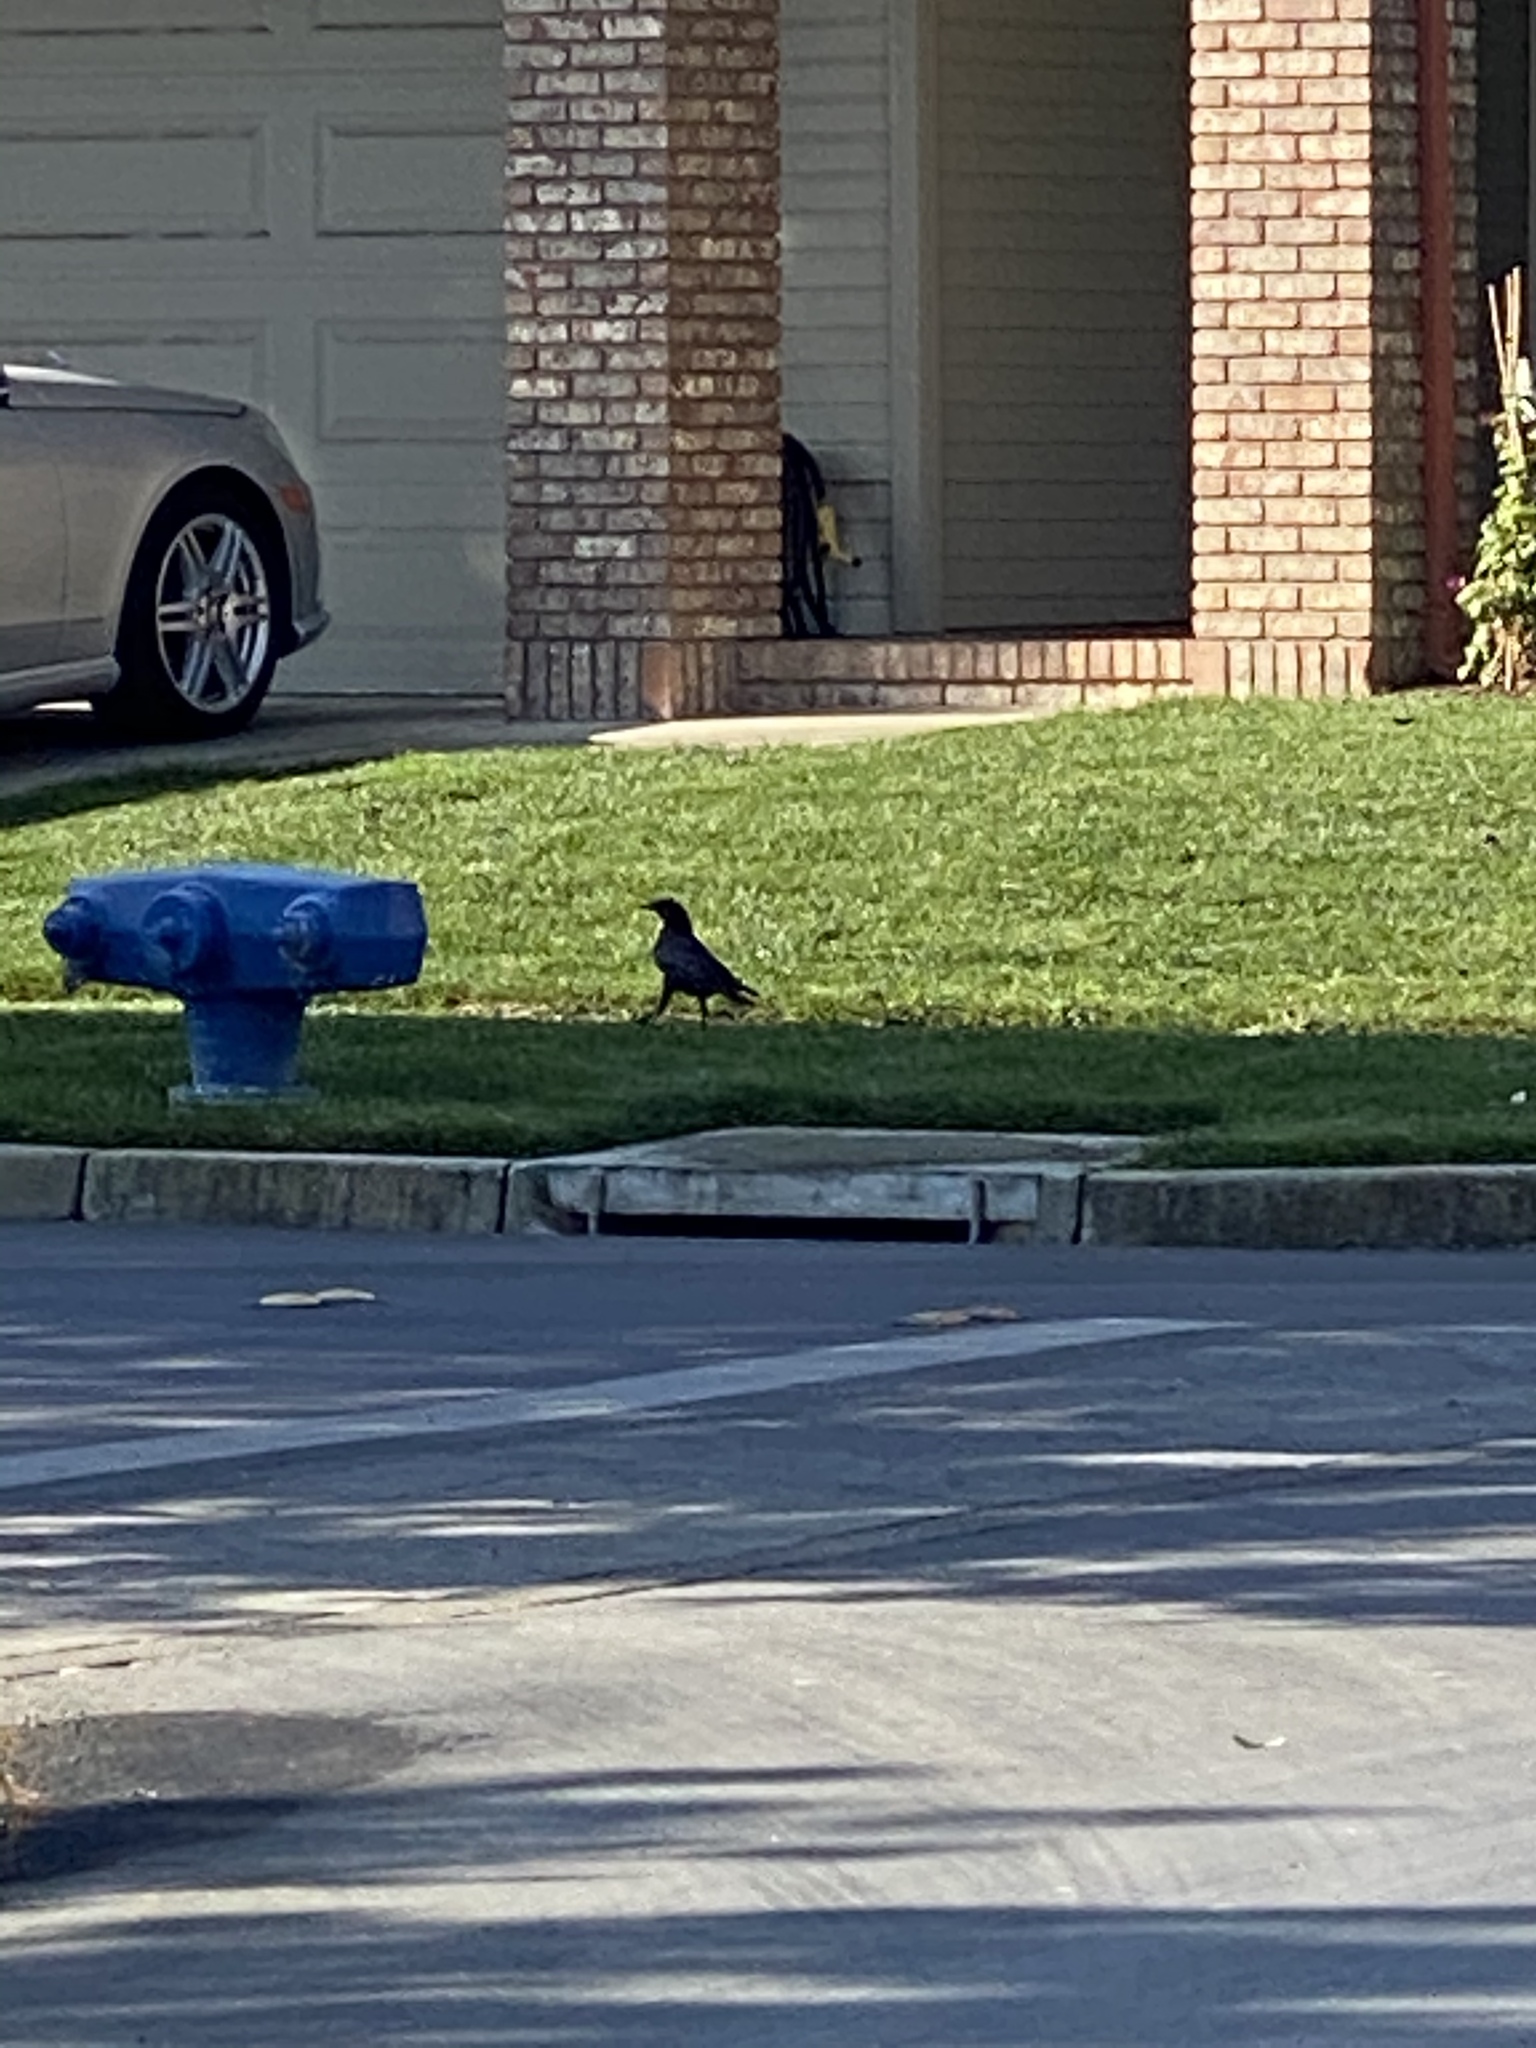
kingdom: Animalia
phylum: Chordata
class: Aves
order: Passeriformes
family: Corvidae
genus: Corvus
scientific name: Corvus brachyrhynchos
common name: American crow
